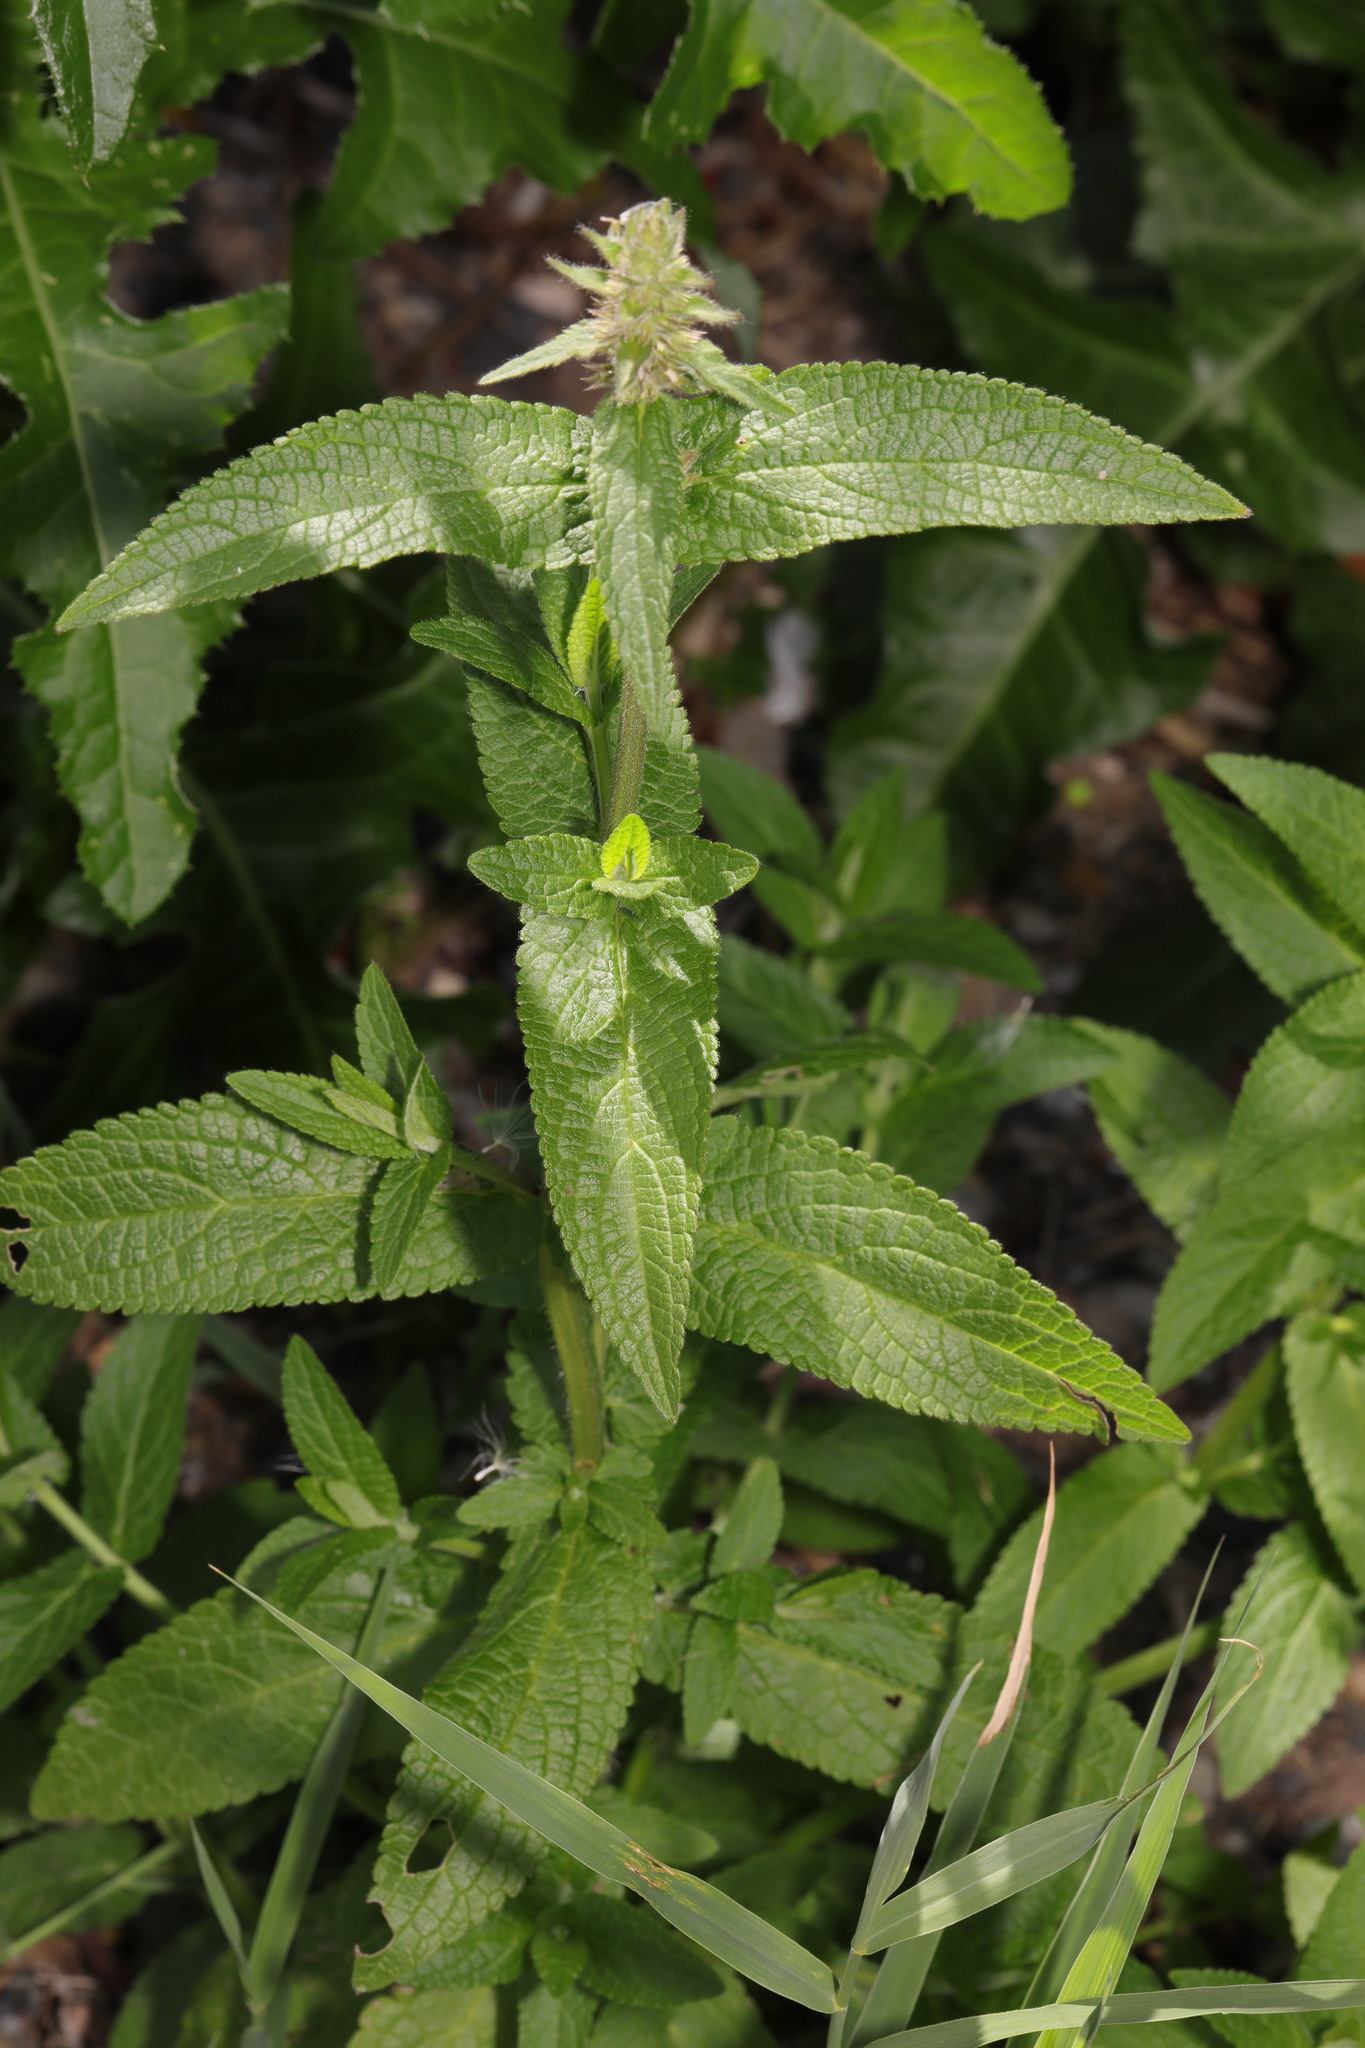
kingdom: Plantae
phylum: Tracheophyta
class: Magnoliopsida
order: Lamiales
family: Lamiaceae
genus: Stachys
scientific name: Stachys palustris
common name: Marsh woundwort
